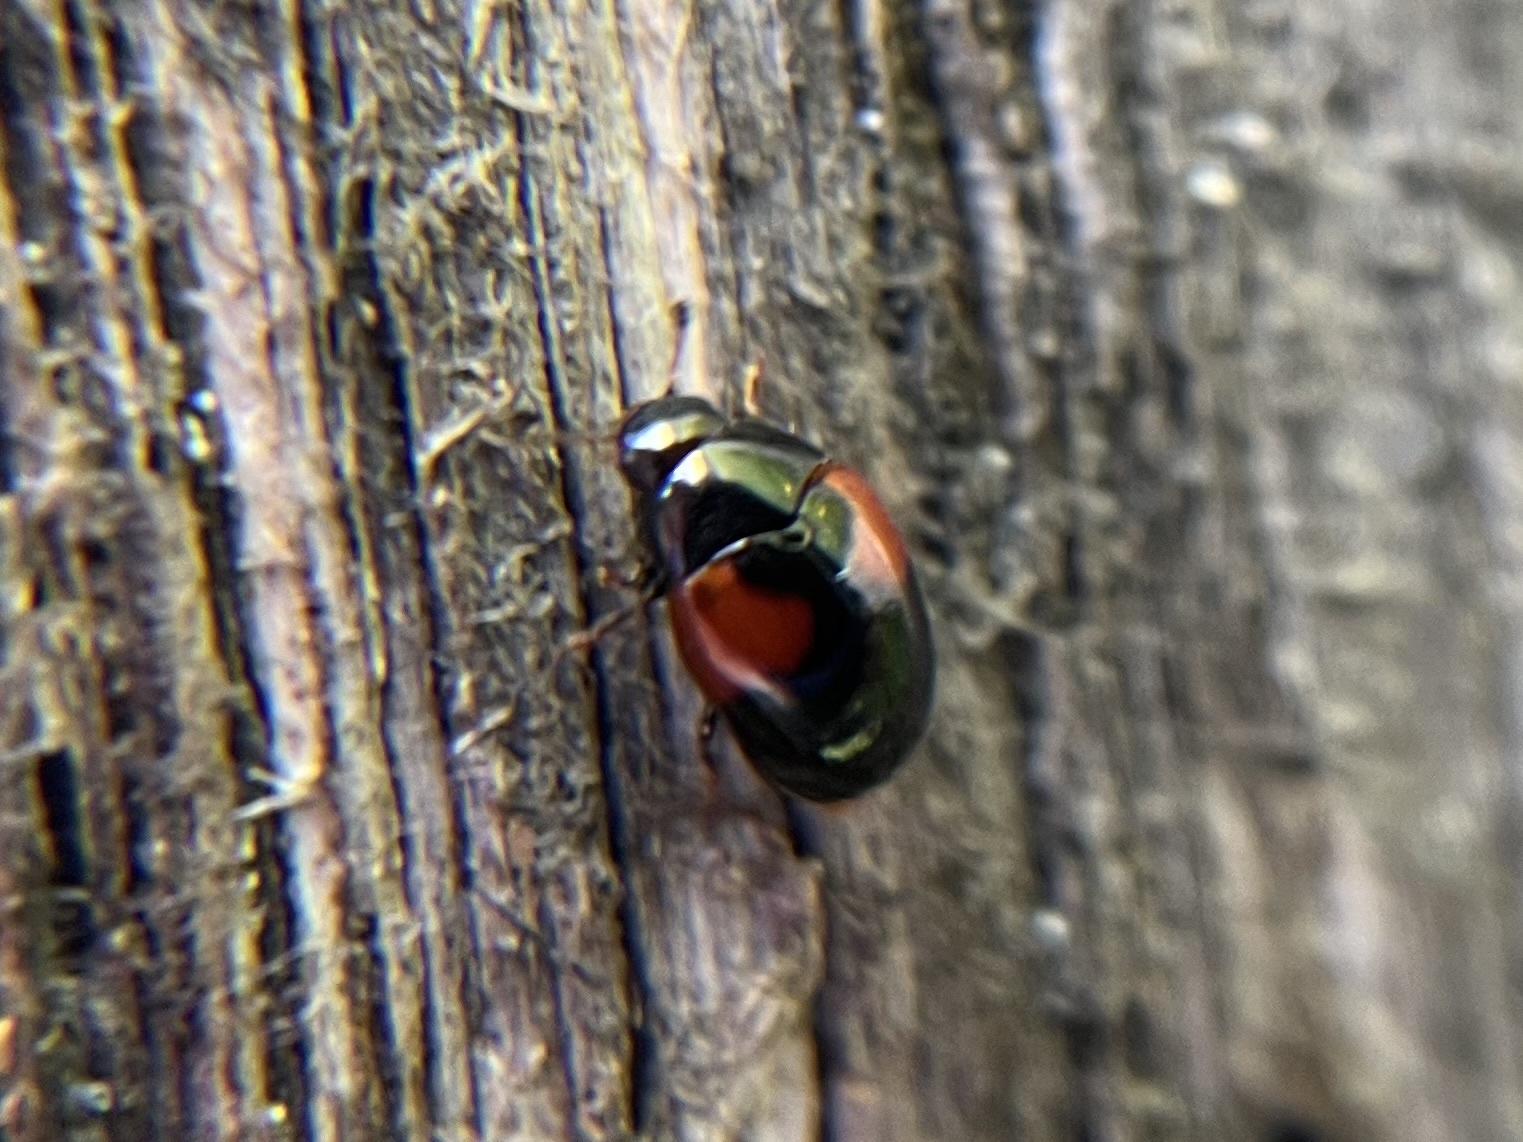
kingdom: Animalia
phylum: Arthropoda
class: Insecta
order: Coleoptera
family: Erotylidae
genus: Tritoma
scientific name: Tritoma bipustulata
